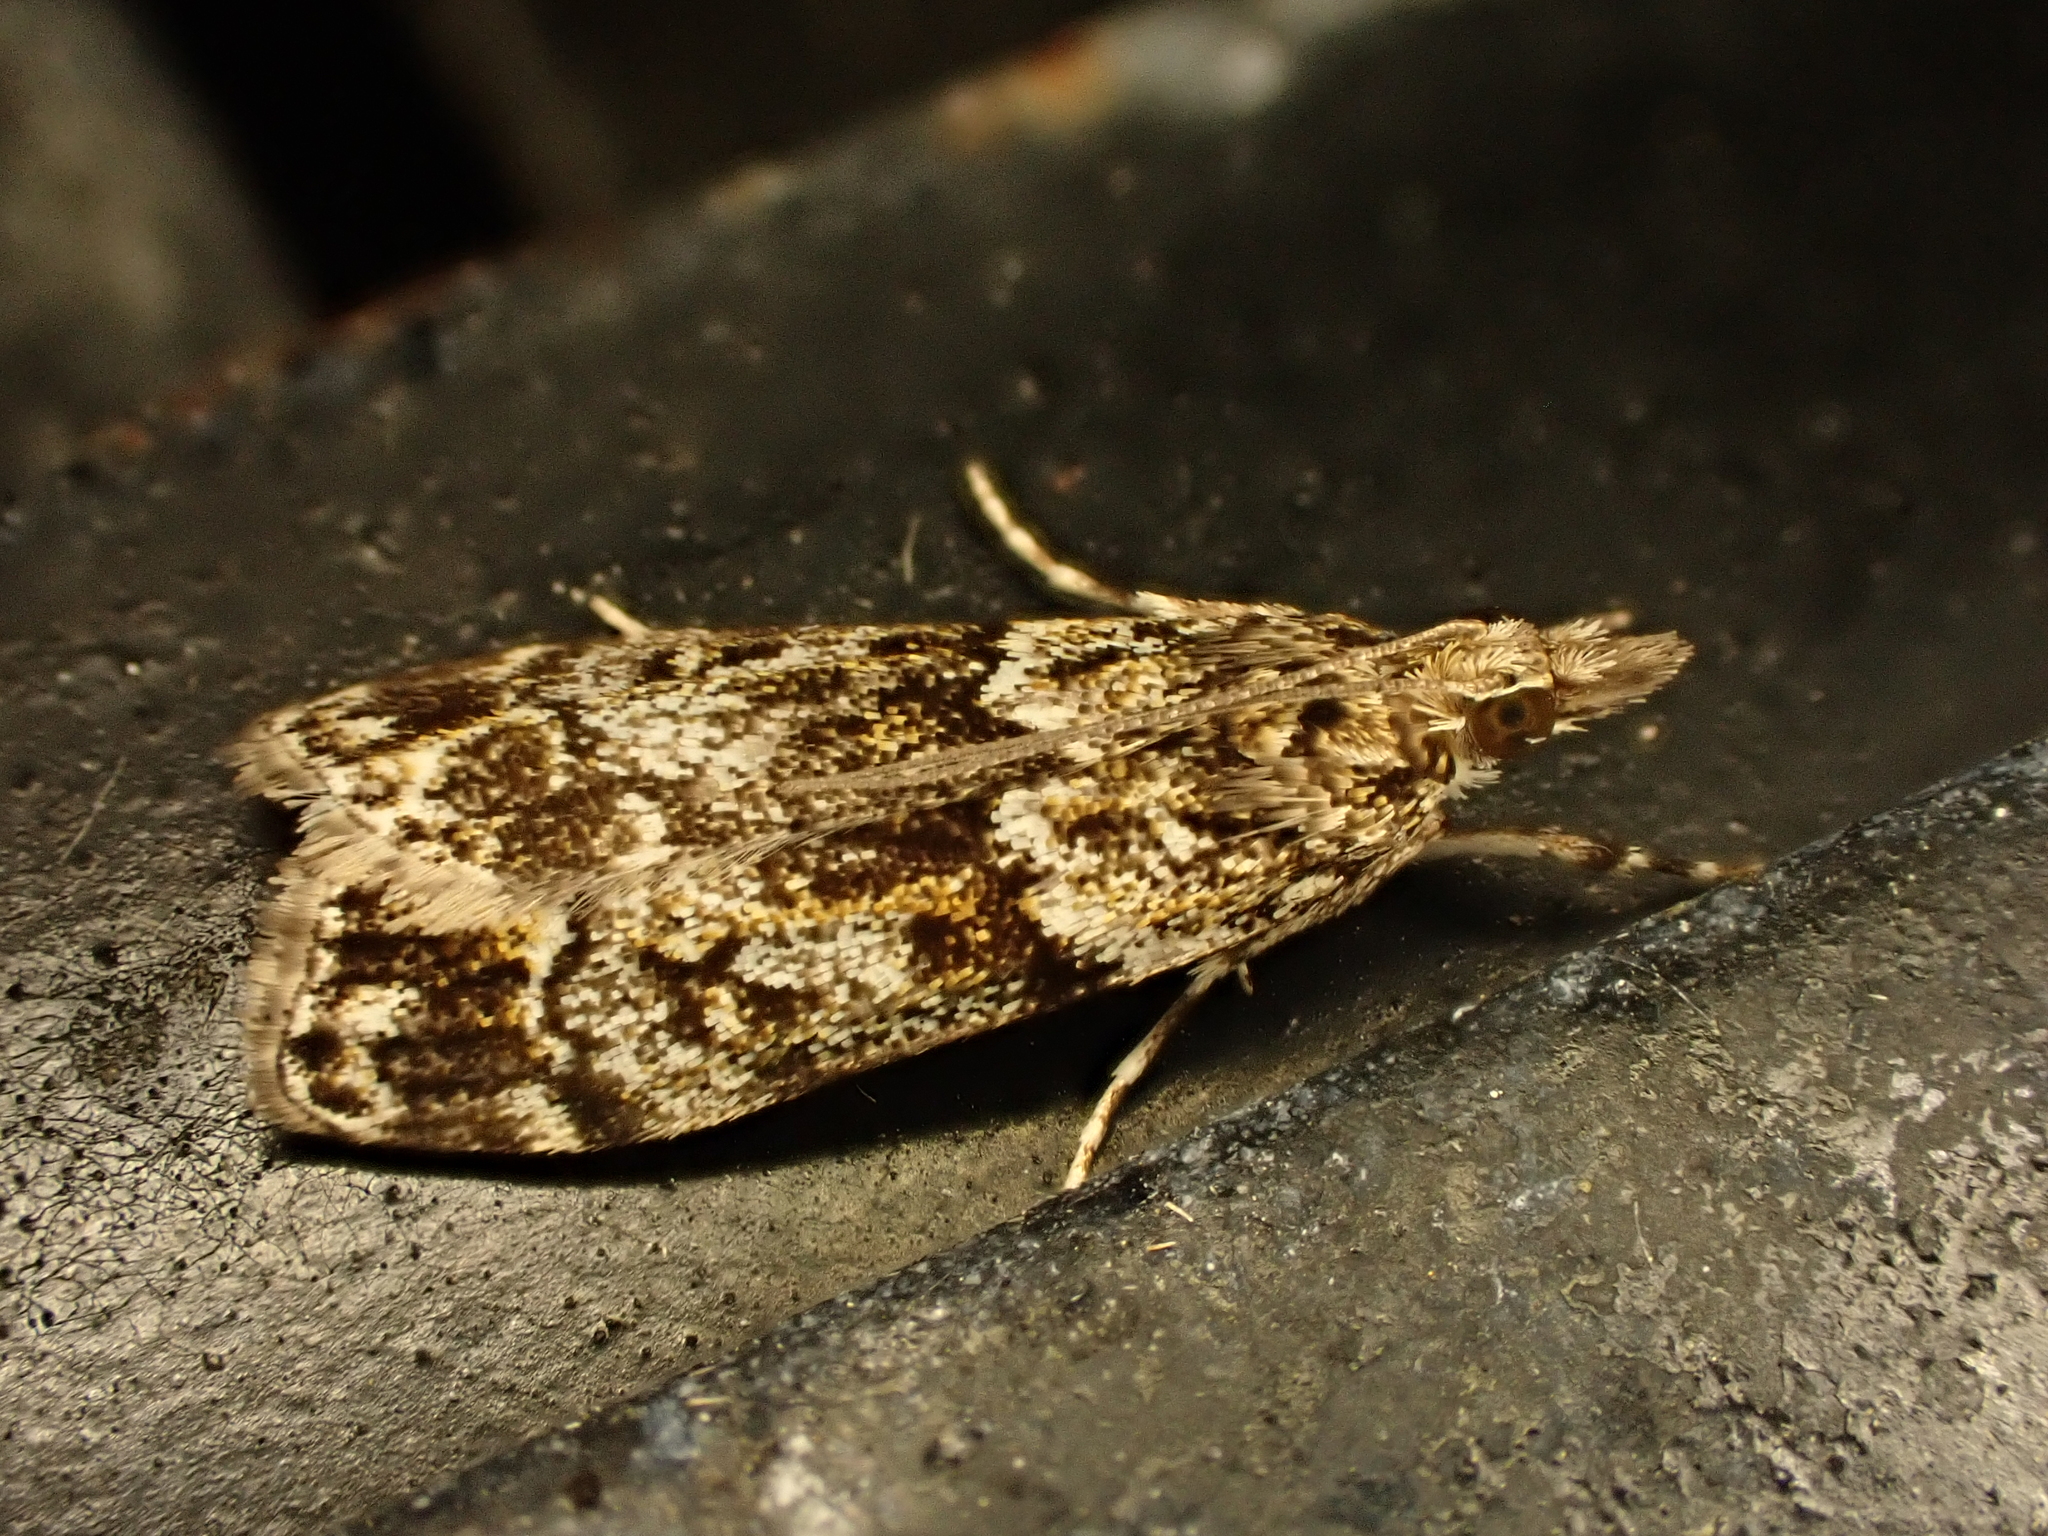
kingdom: Animalia
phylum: Arthropoda
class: Insecta
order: Lepidoptera
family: Crambidae
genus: Eudonia
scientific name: Eudonia minualis
